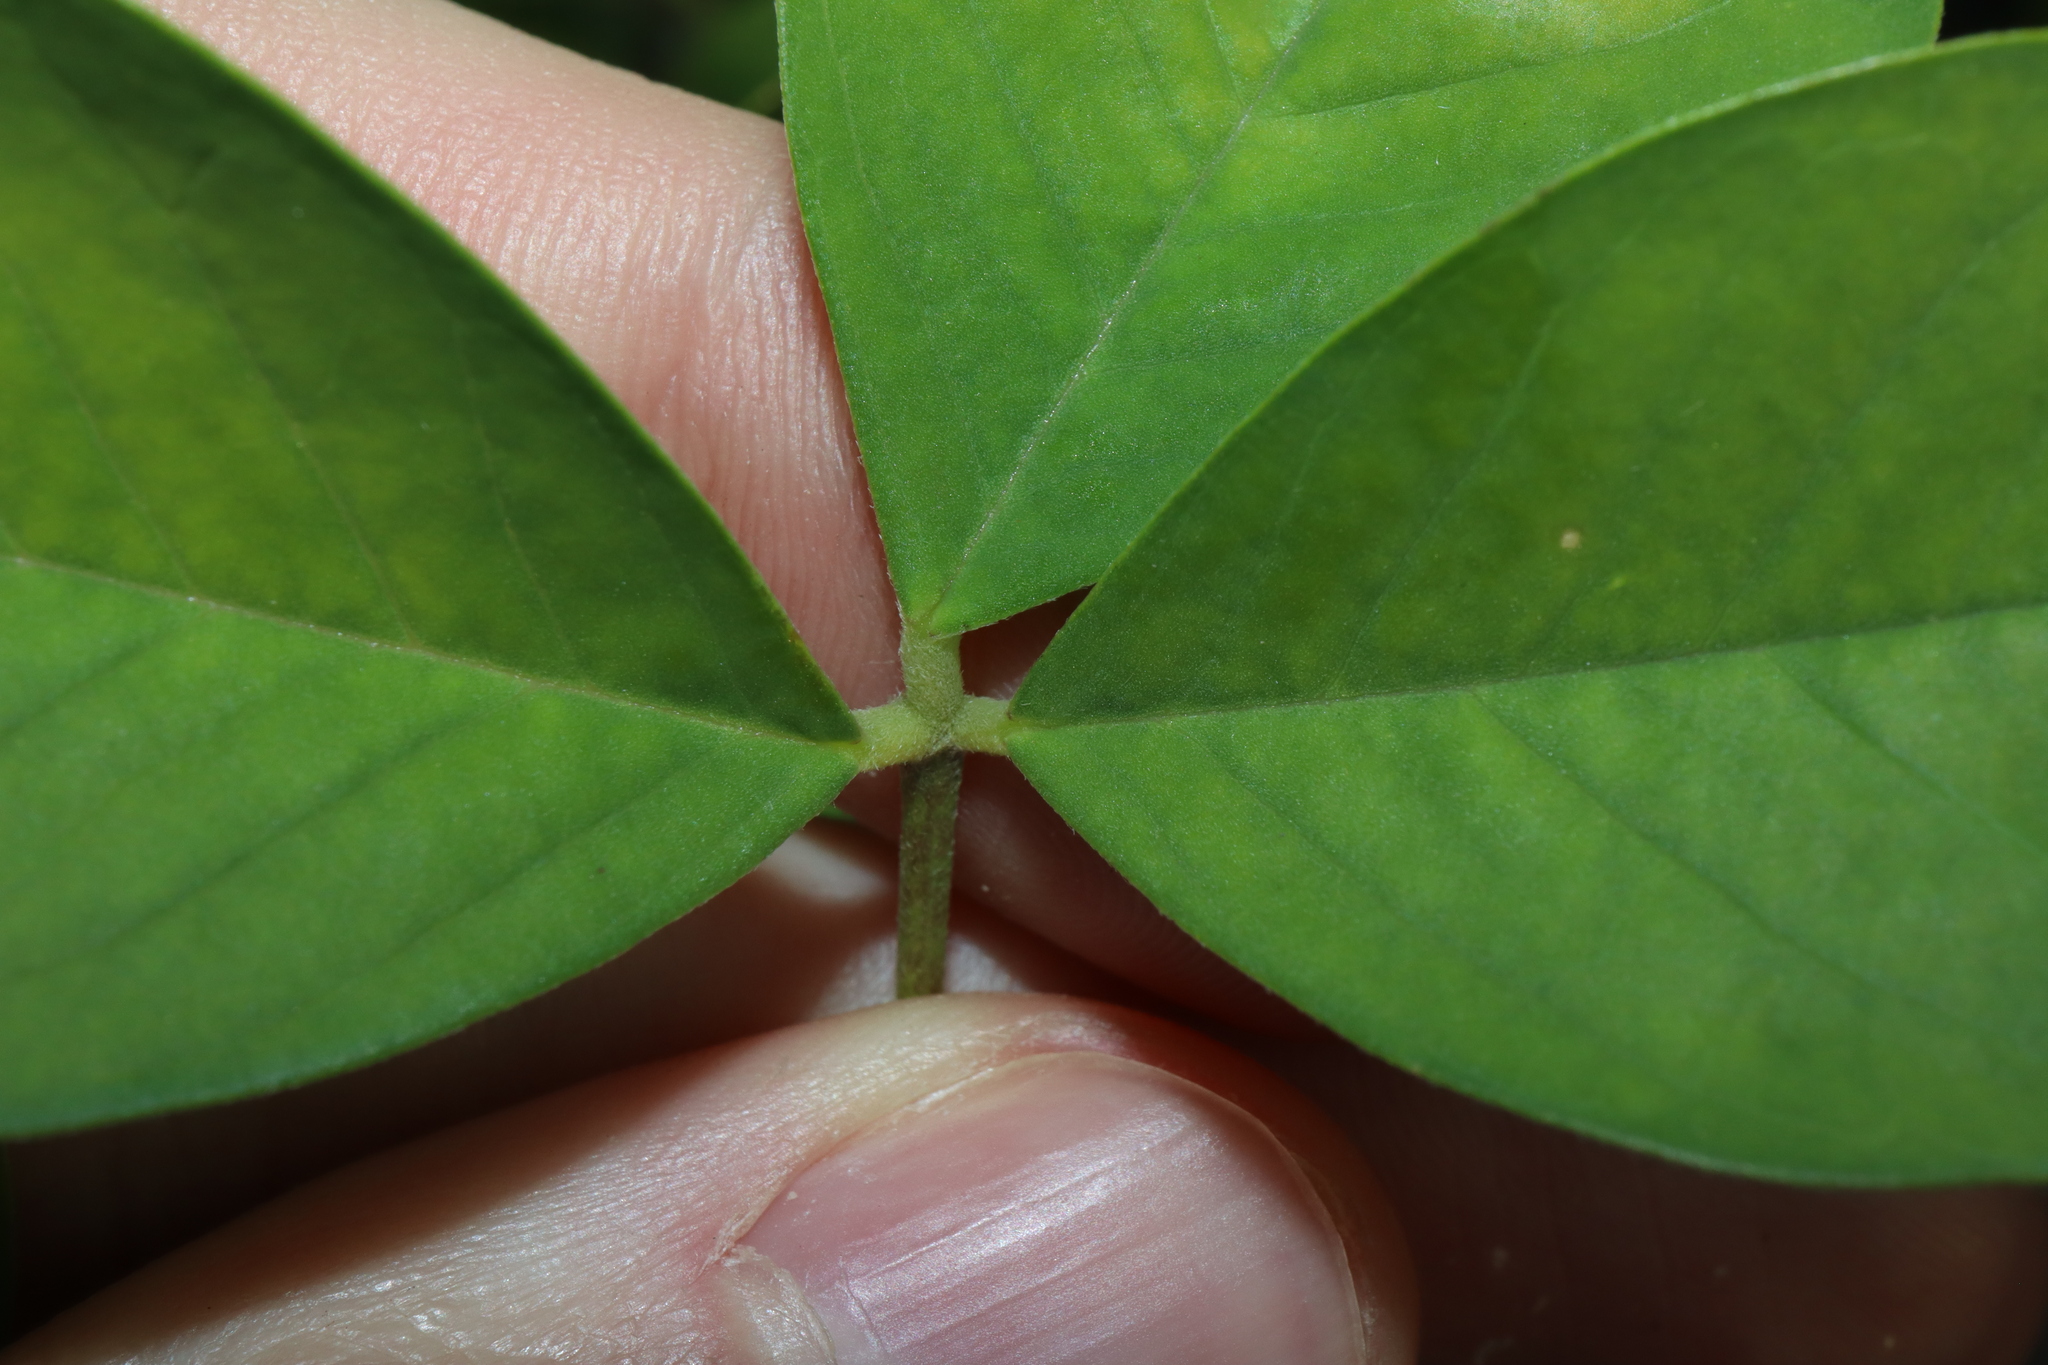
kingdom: Plantae
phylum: Tracheophyta
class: Magnoliopsida
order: Fabales
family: Fabaceae
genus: Crotalaria
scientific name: Crotalaria pallida
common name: Smooth rattlebox
